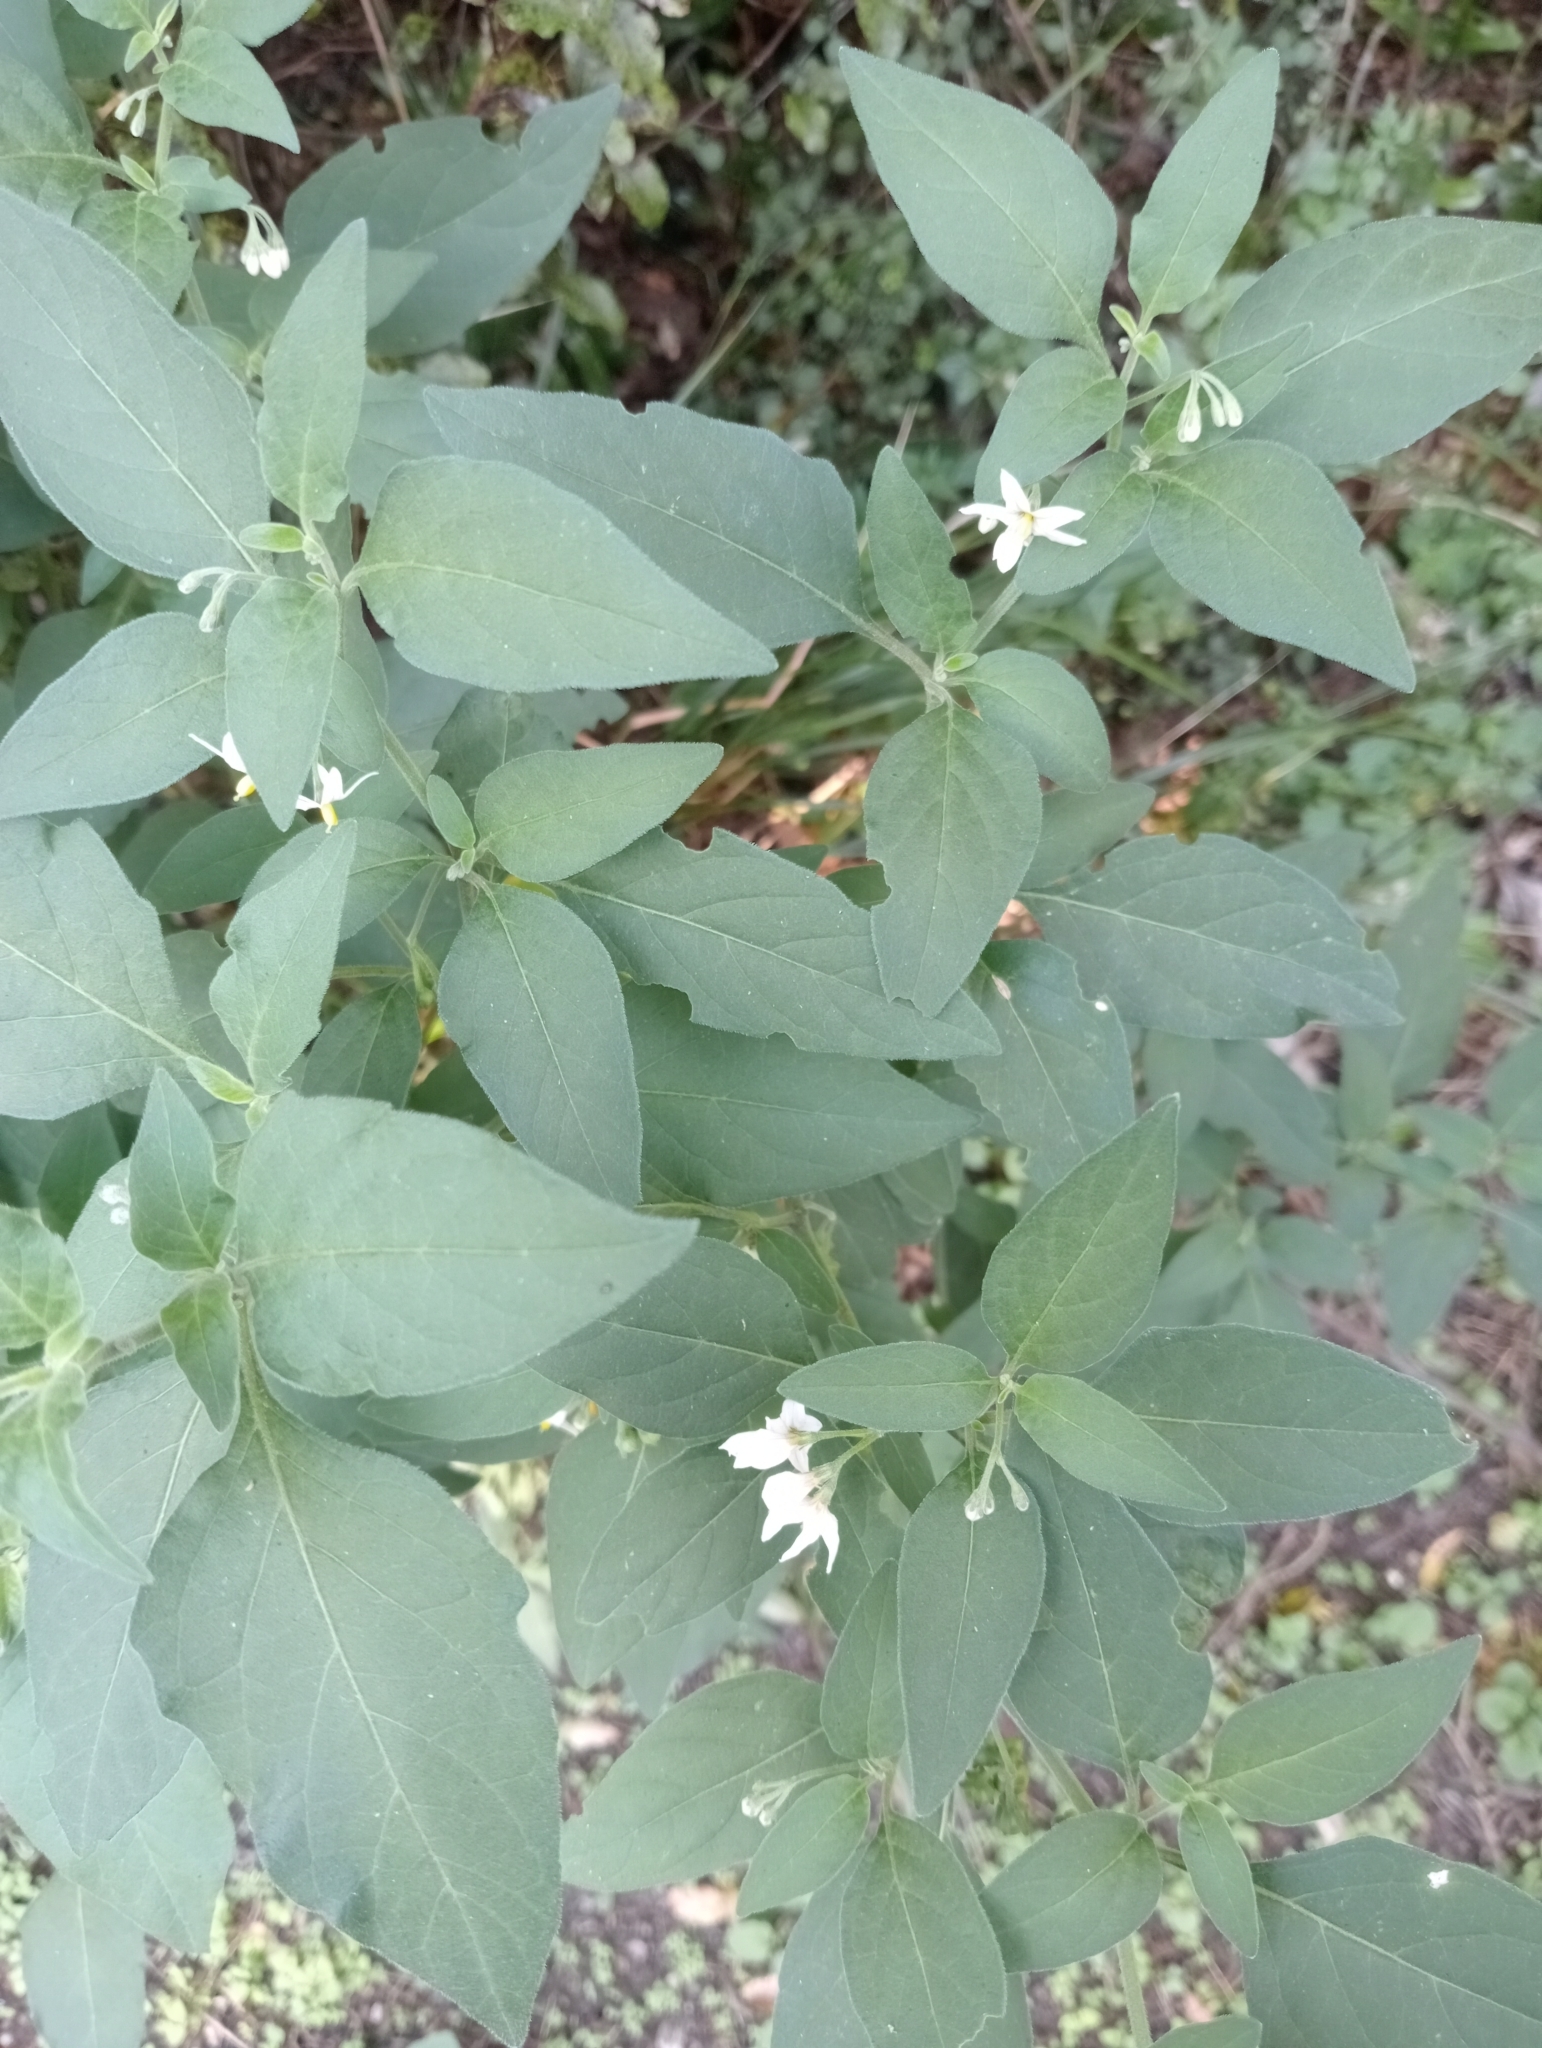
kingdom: Plantae
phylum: Tracheophyta
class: Magnoliopsida
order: Solanales
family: Solanaceae
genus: Solanum
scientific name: Solanum chenopodioides
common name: Tall nightshade
